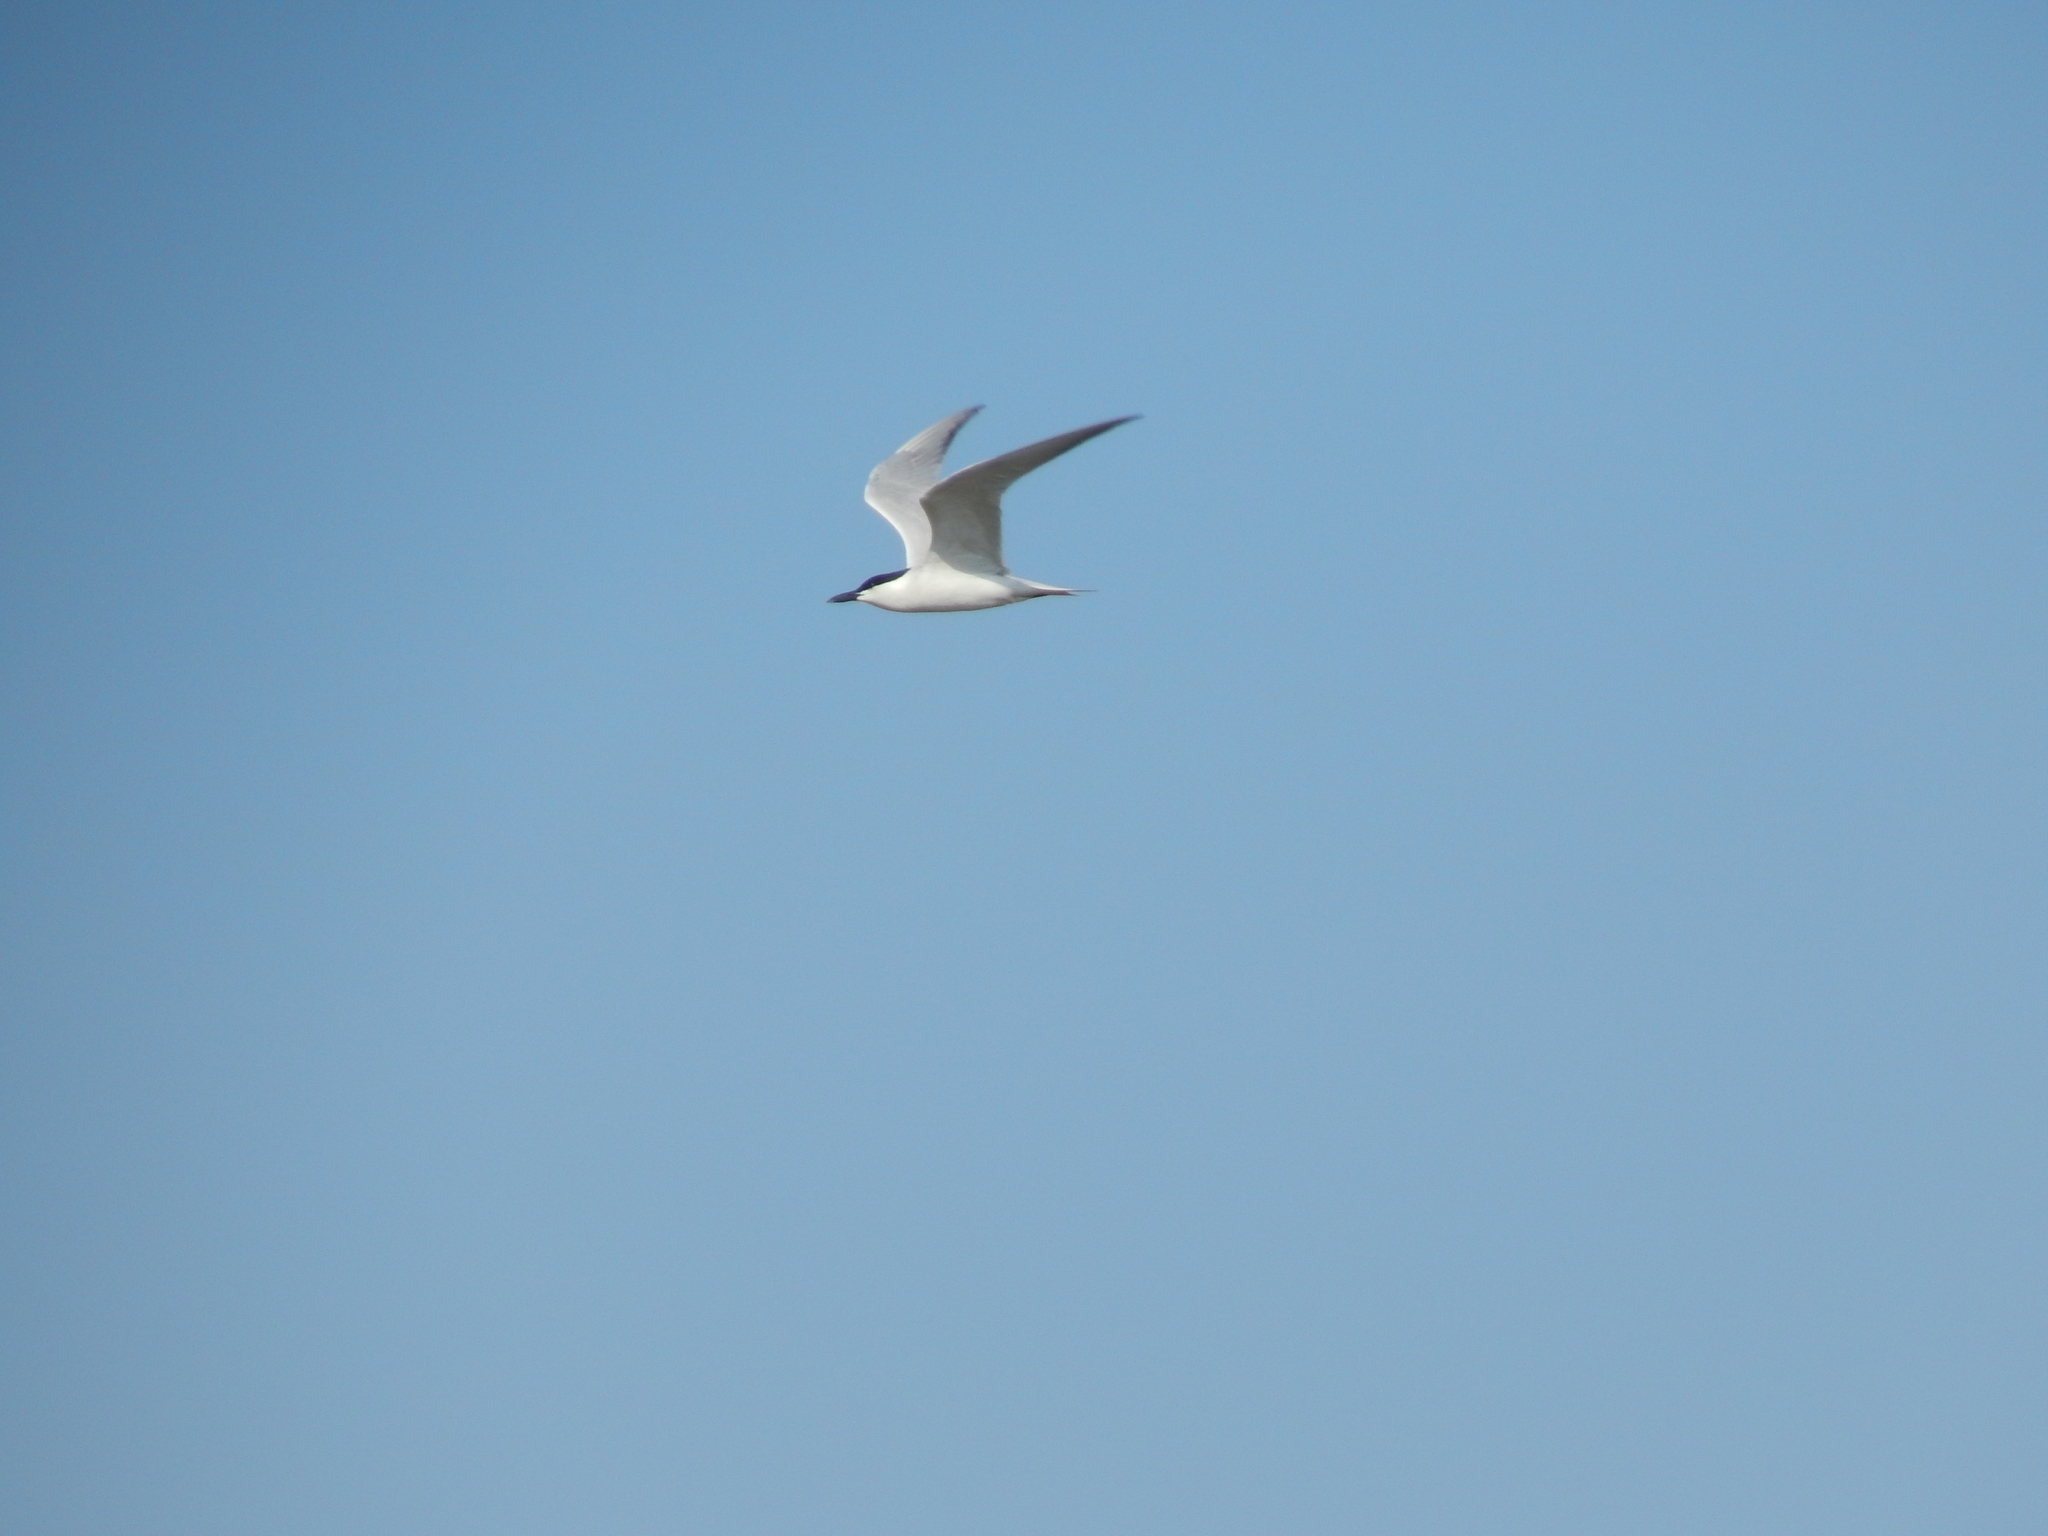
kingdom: Animalia
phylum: Chordata
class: Aves
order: Charadriiformes
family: Laridae
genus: Gelochelidon
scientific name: Gelochelidon nilotica
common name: Gull-billed tern
